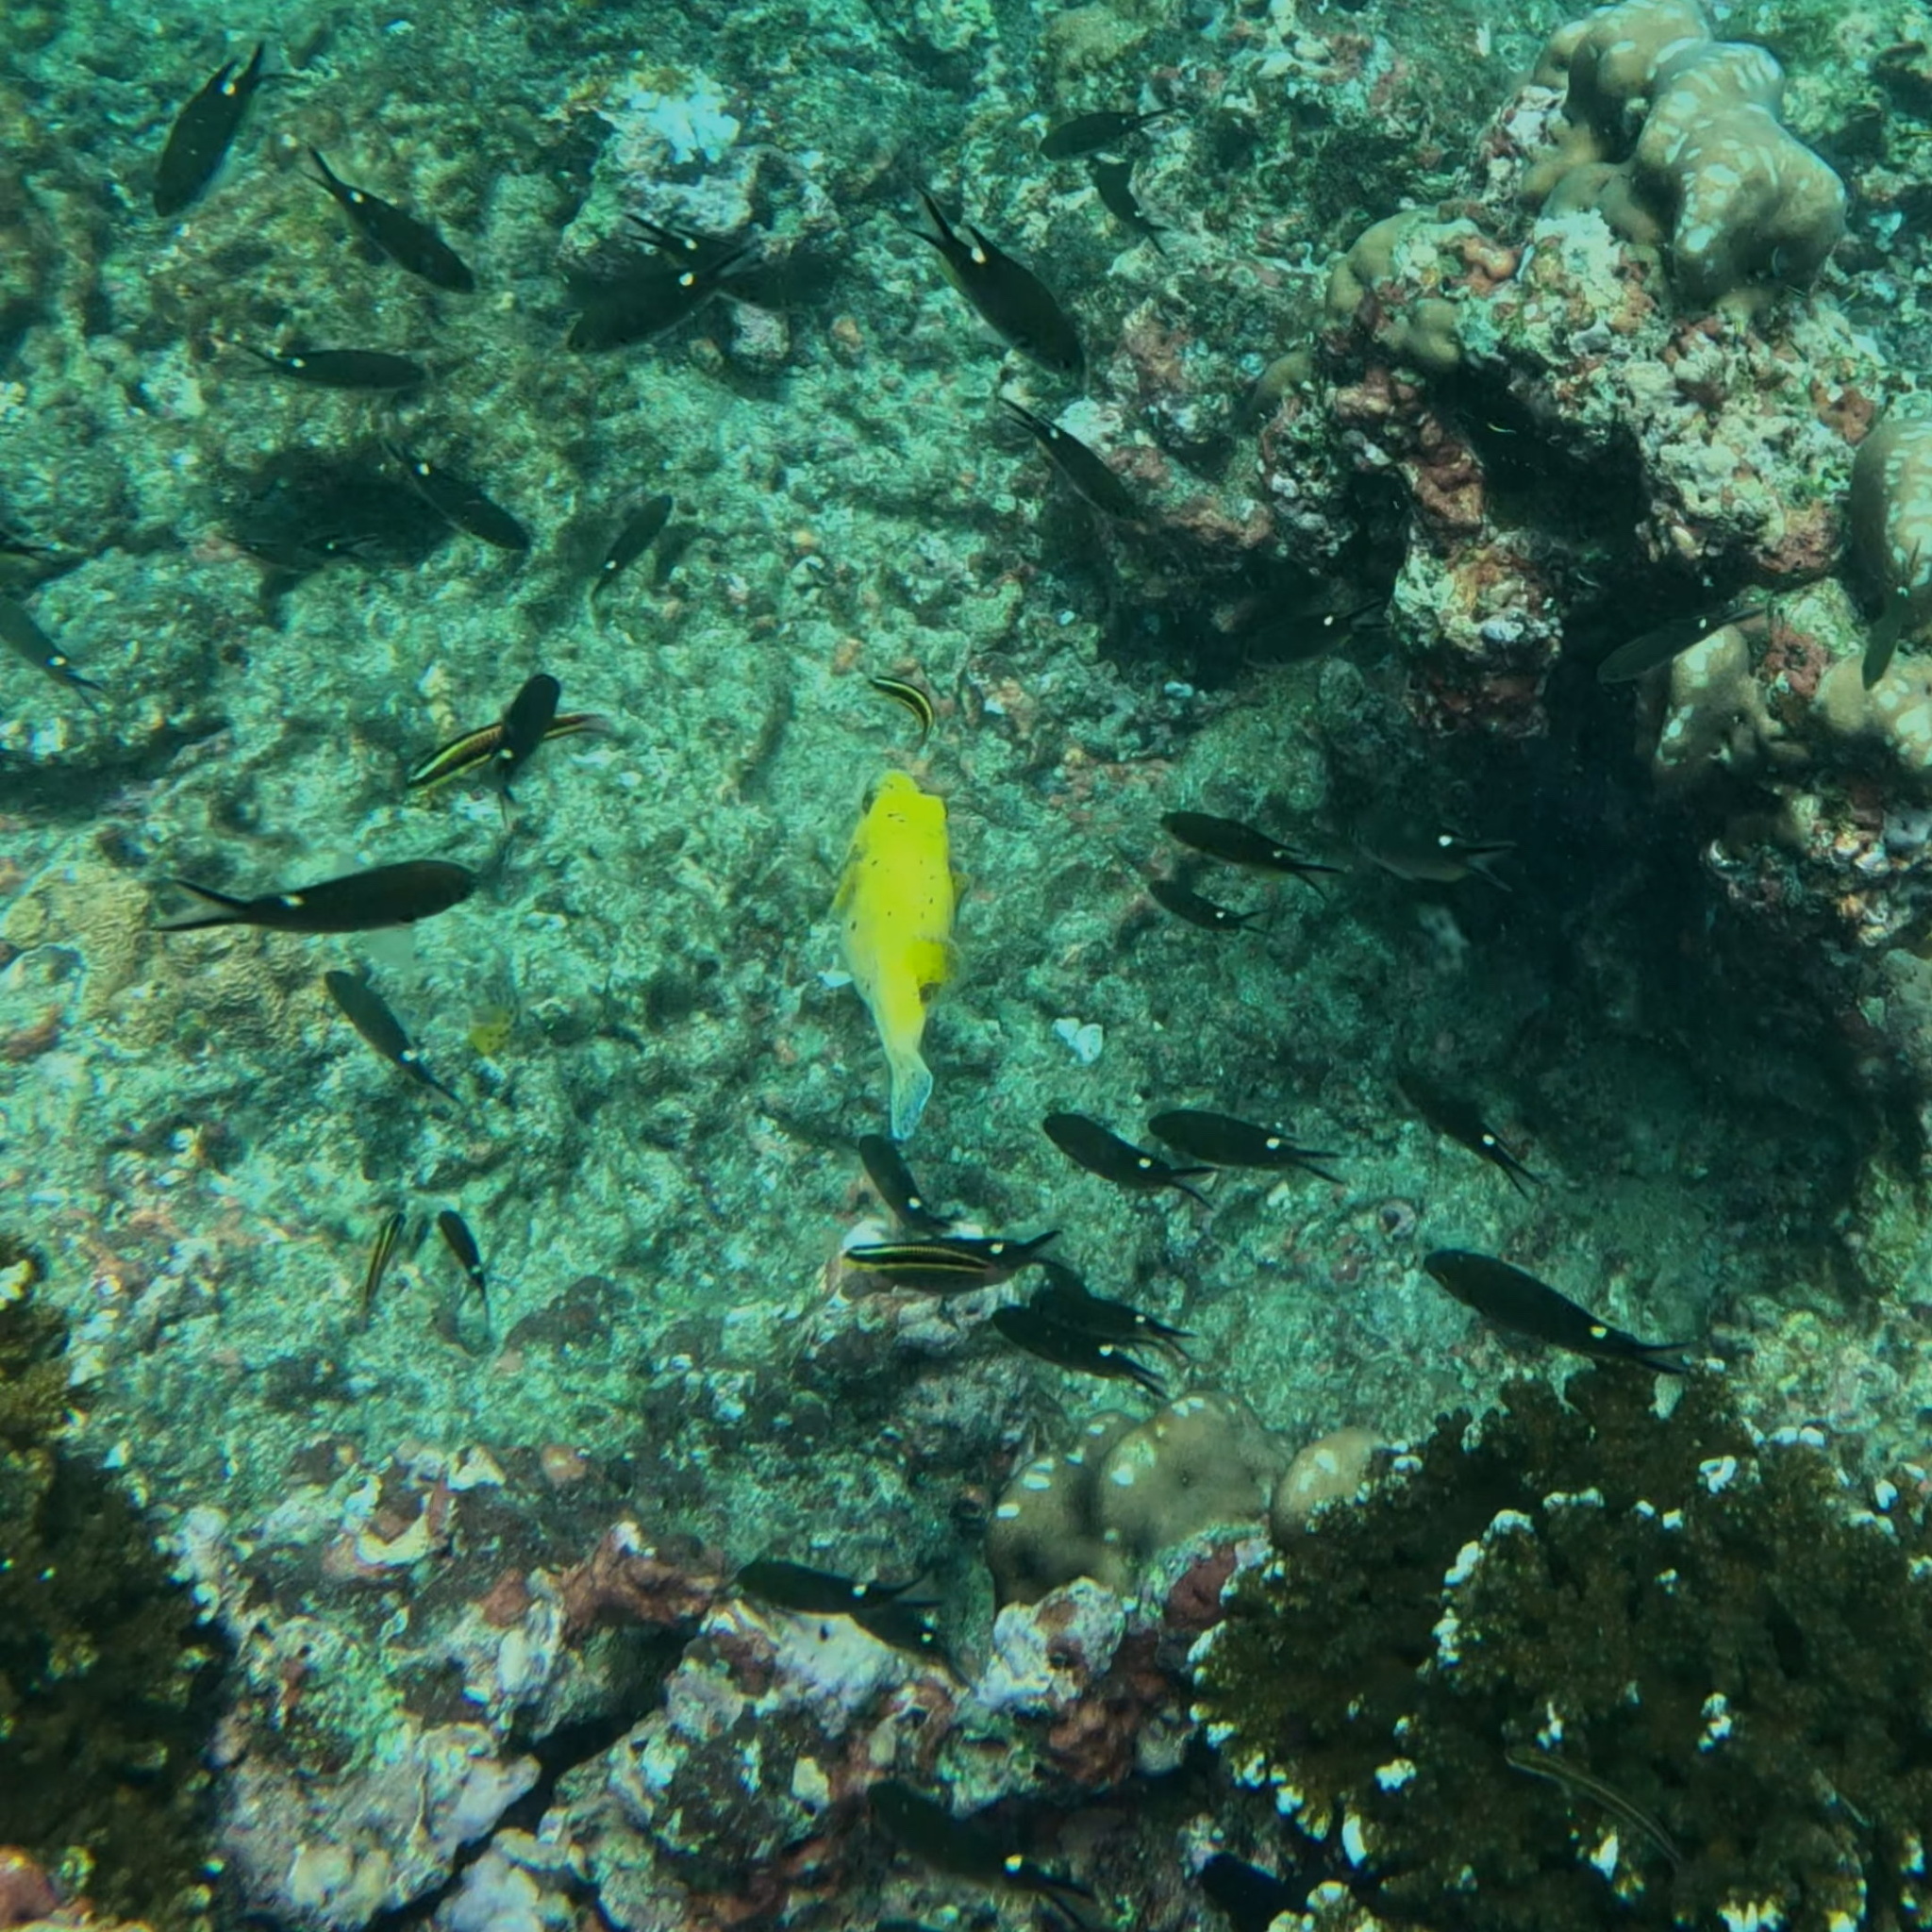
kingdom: Animalia
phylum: Chordata
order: Tetraodontiformes
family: Tetraodontidae
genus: Arothron
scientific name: Arothron meleagris
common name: Guinea-fowl pufferfish
